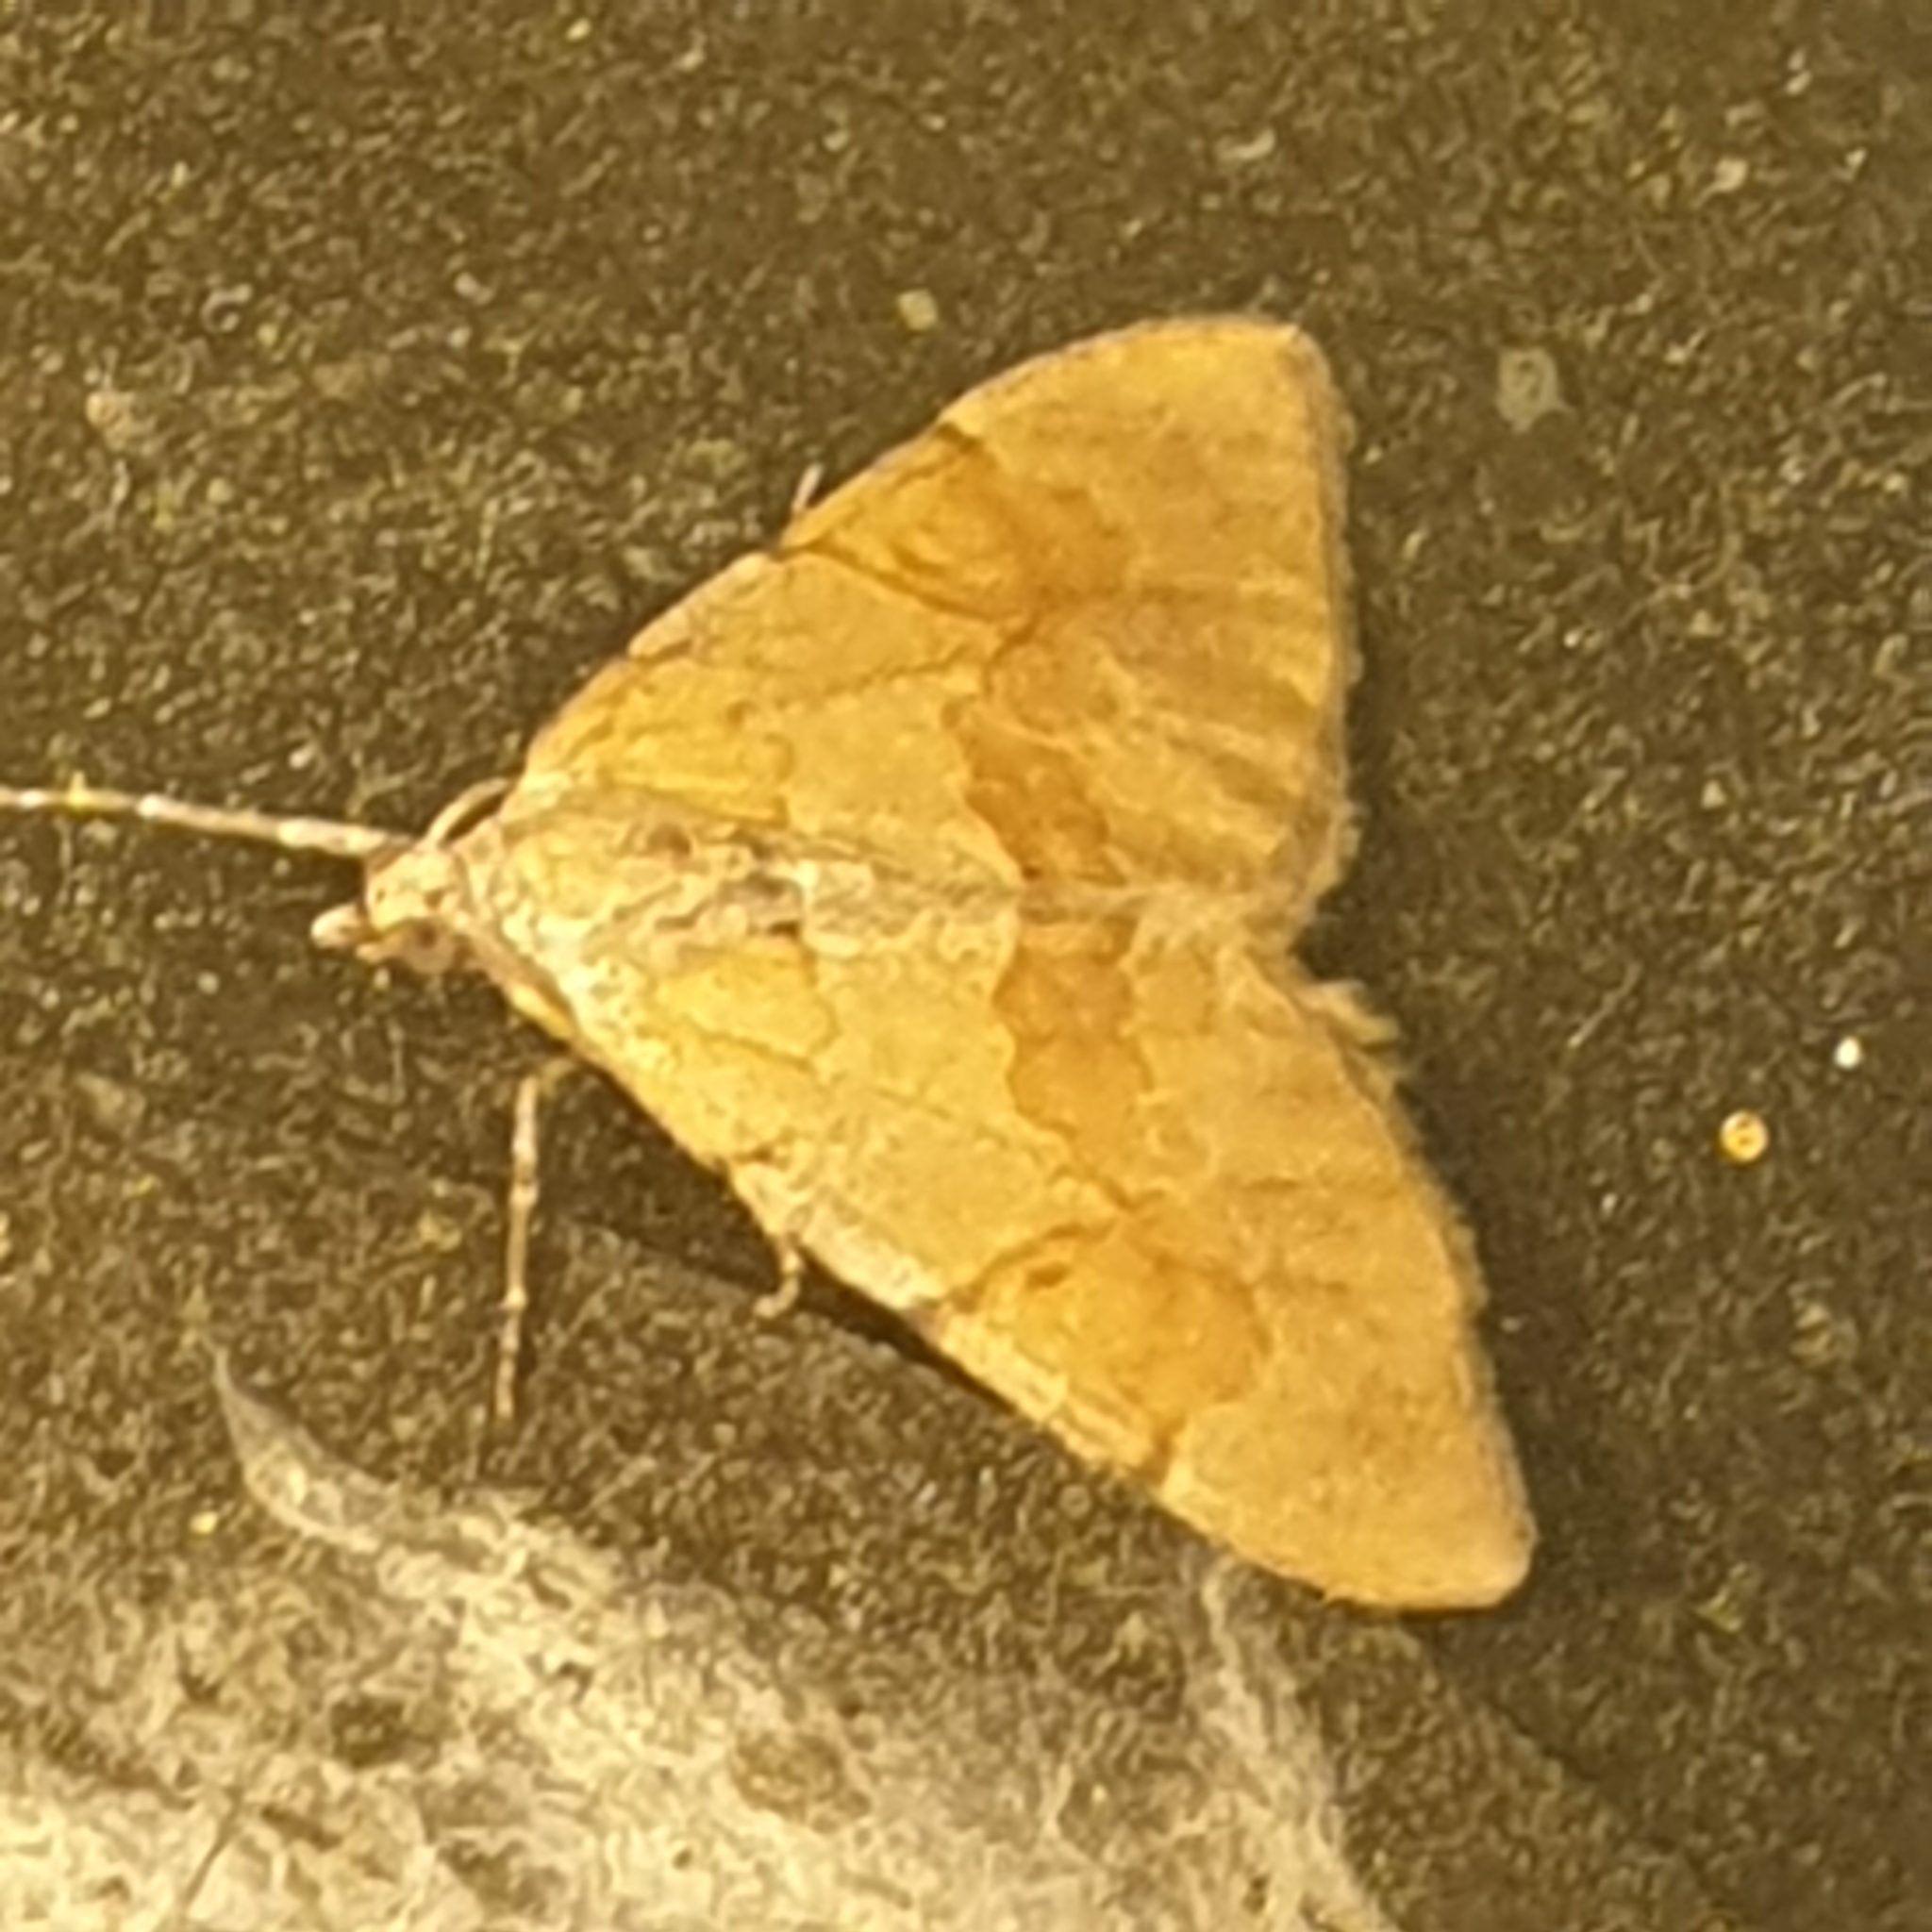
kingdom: Animalia
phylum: Arthropoda
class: Insecta
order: Lepidoptera
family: Geometridae
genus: Pennithera
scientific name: Pennithera firmata
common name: Pine carpet
